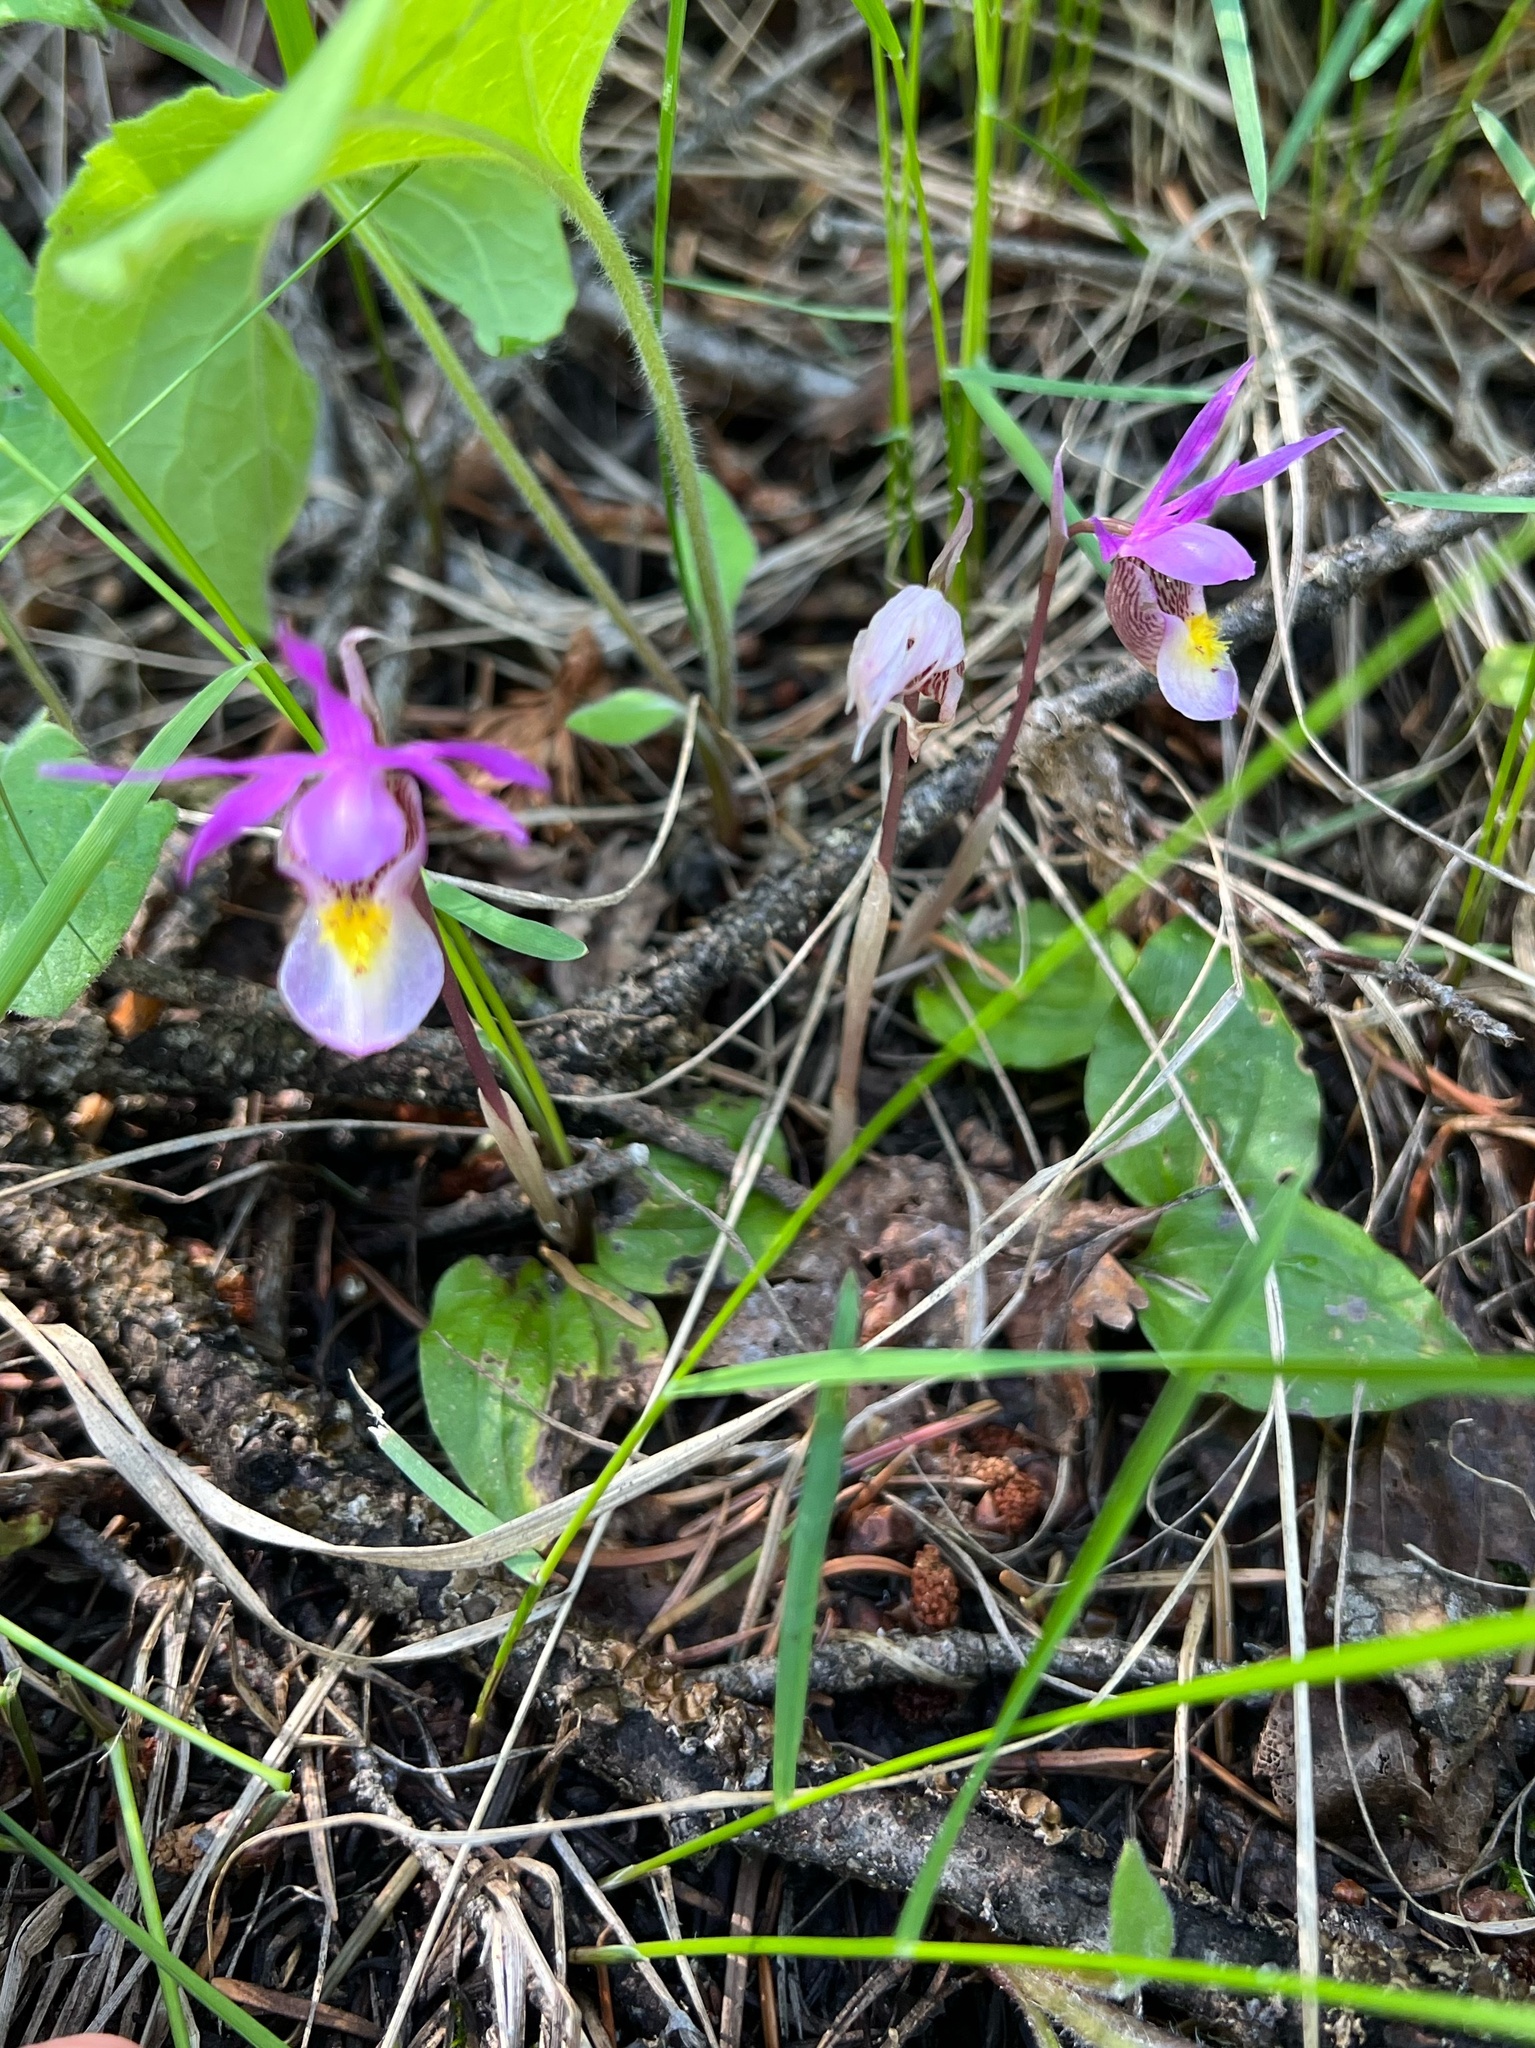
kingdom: Plantae
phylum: Tracheophyta
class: Liliopsida
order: Asparagales
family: Orchidaceae
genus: Calypso
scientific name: Calypso bulbosa
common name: Calypso
